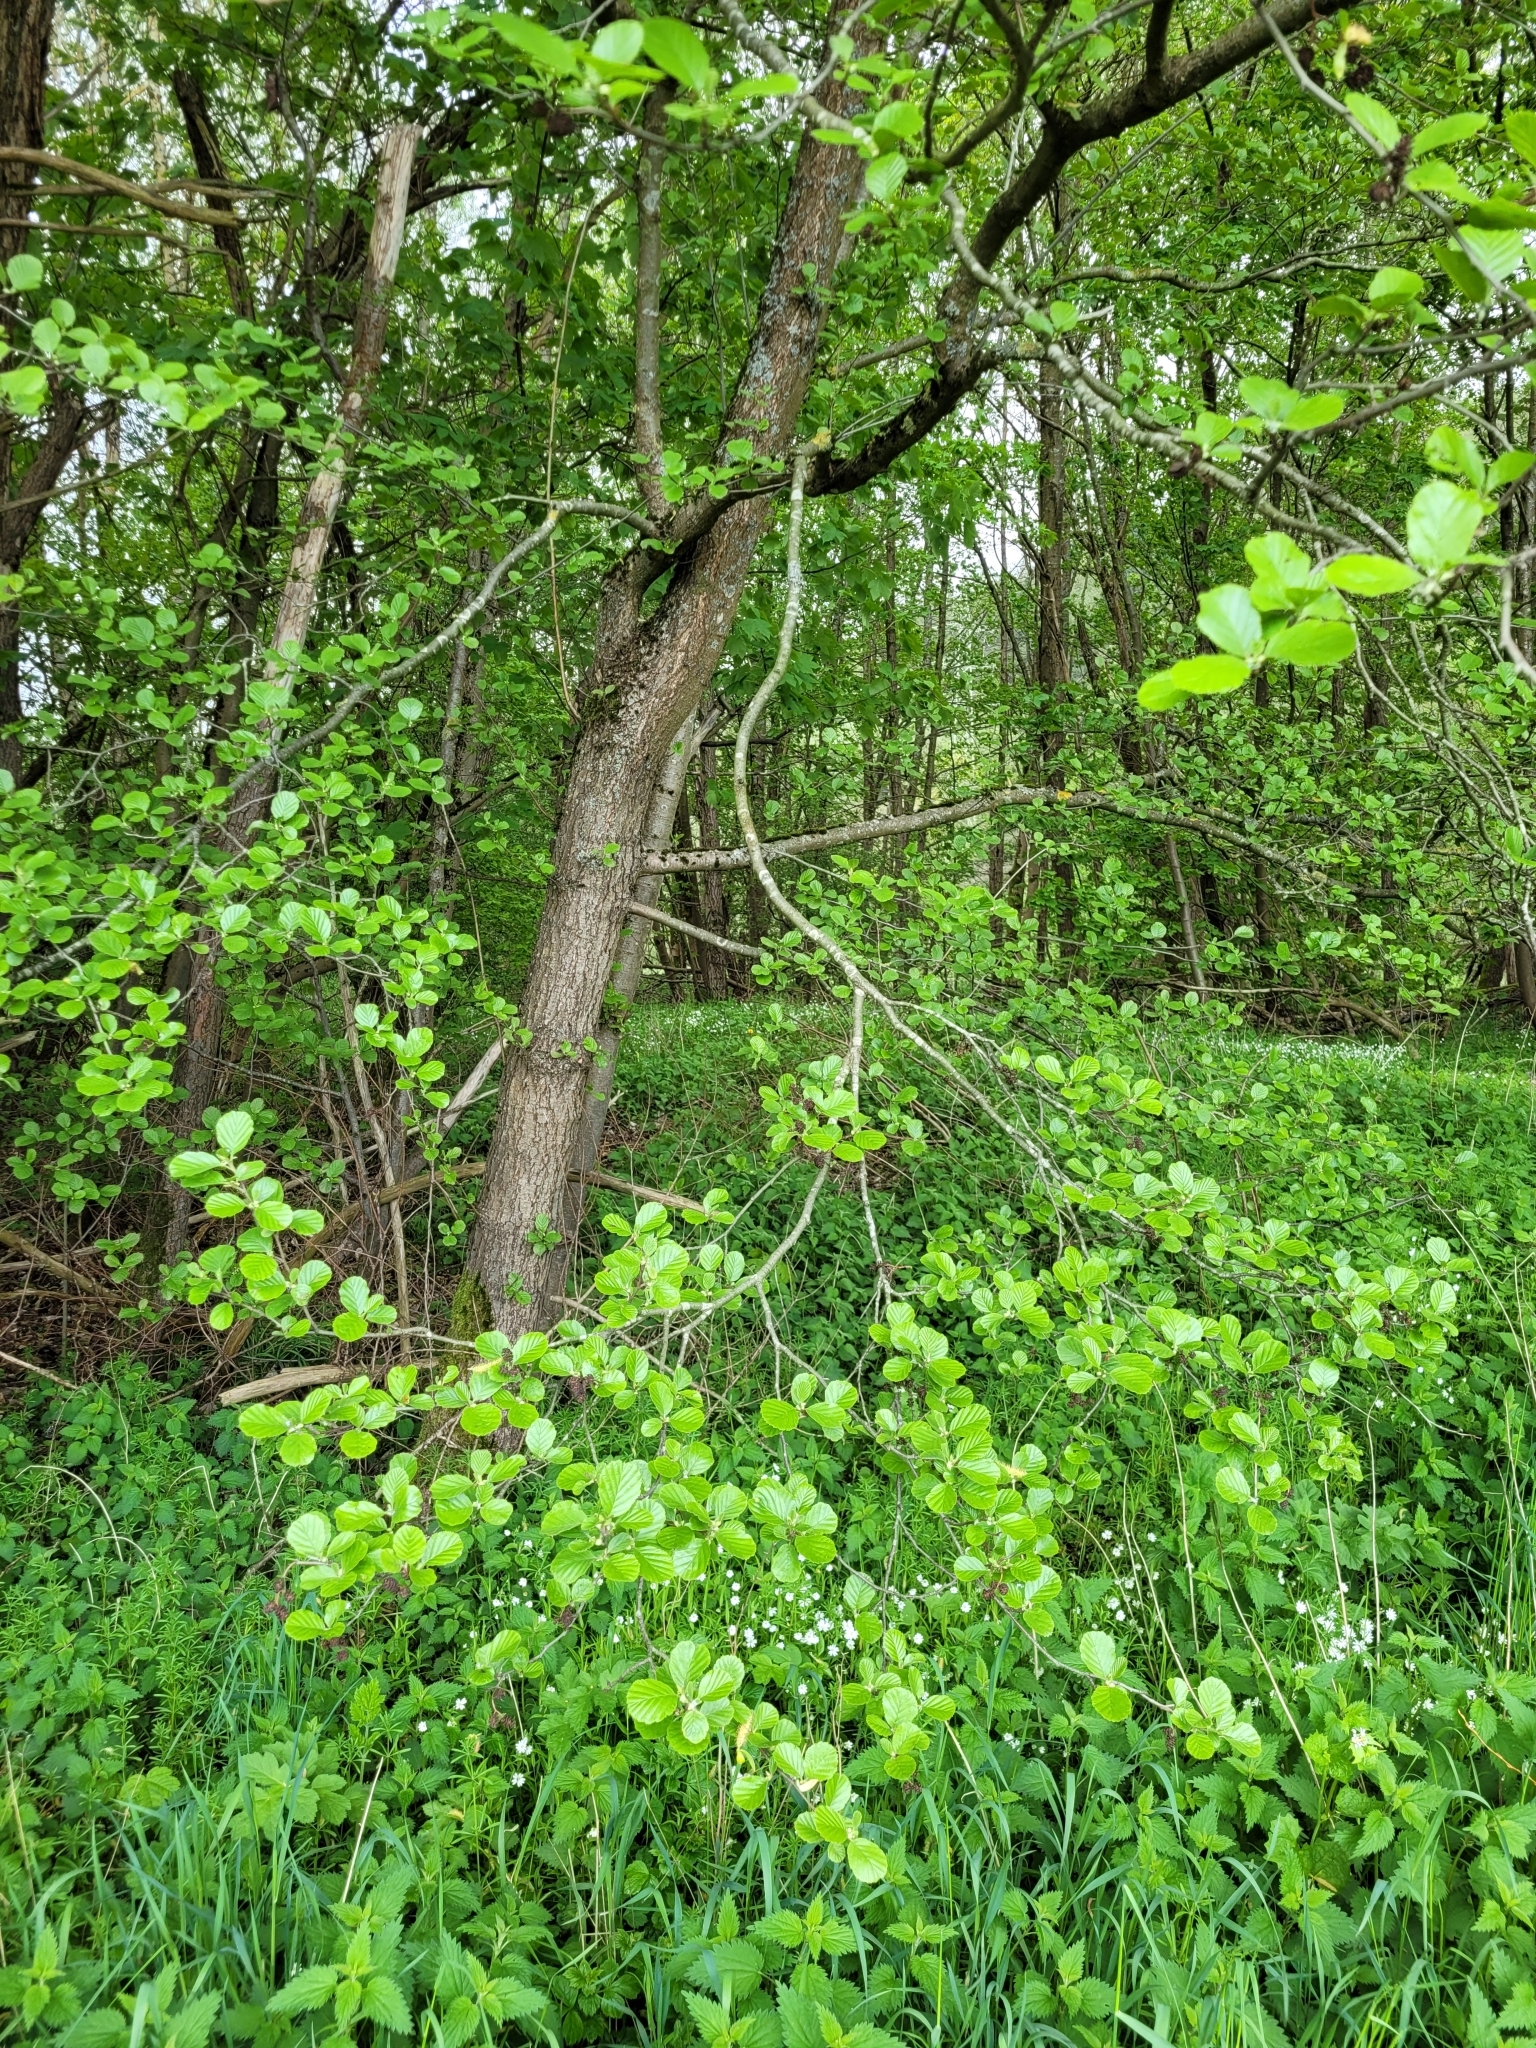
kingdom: Plantae
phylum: Tracheophyta
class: Magnoliopsida
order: Fagales
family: Betulaceae
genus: Alnus
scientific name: Alnus glutinosa
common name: Black alder
